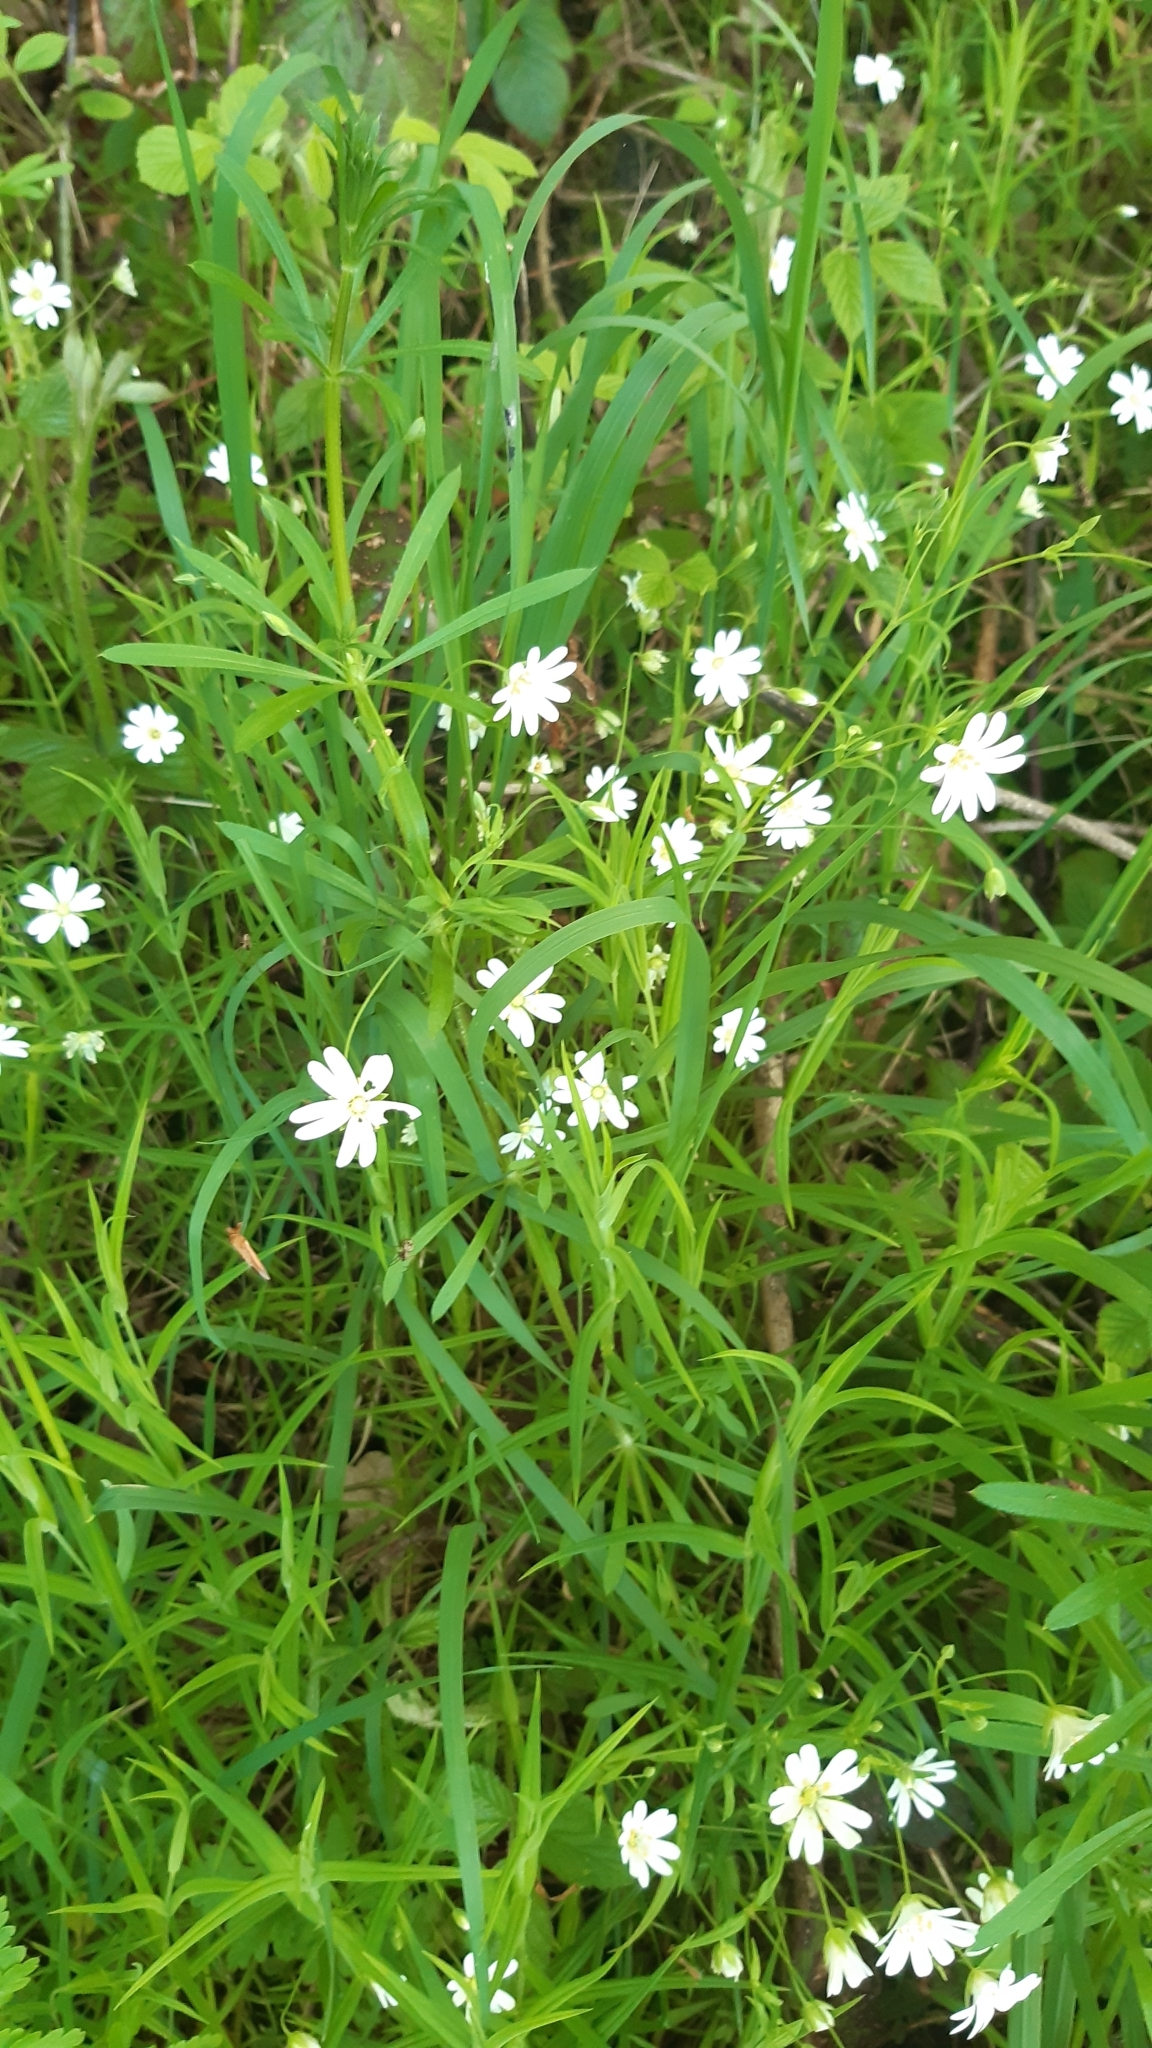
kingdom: Plantae
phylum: Tracheophyta
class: Magnoliopsida
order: Caryophyllales
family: Caryophyllaceae
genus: Rabelera
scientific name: Rabelera holostea
